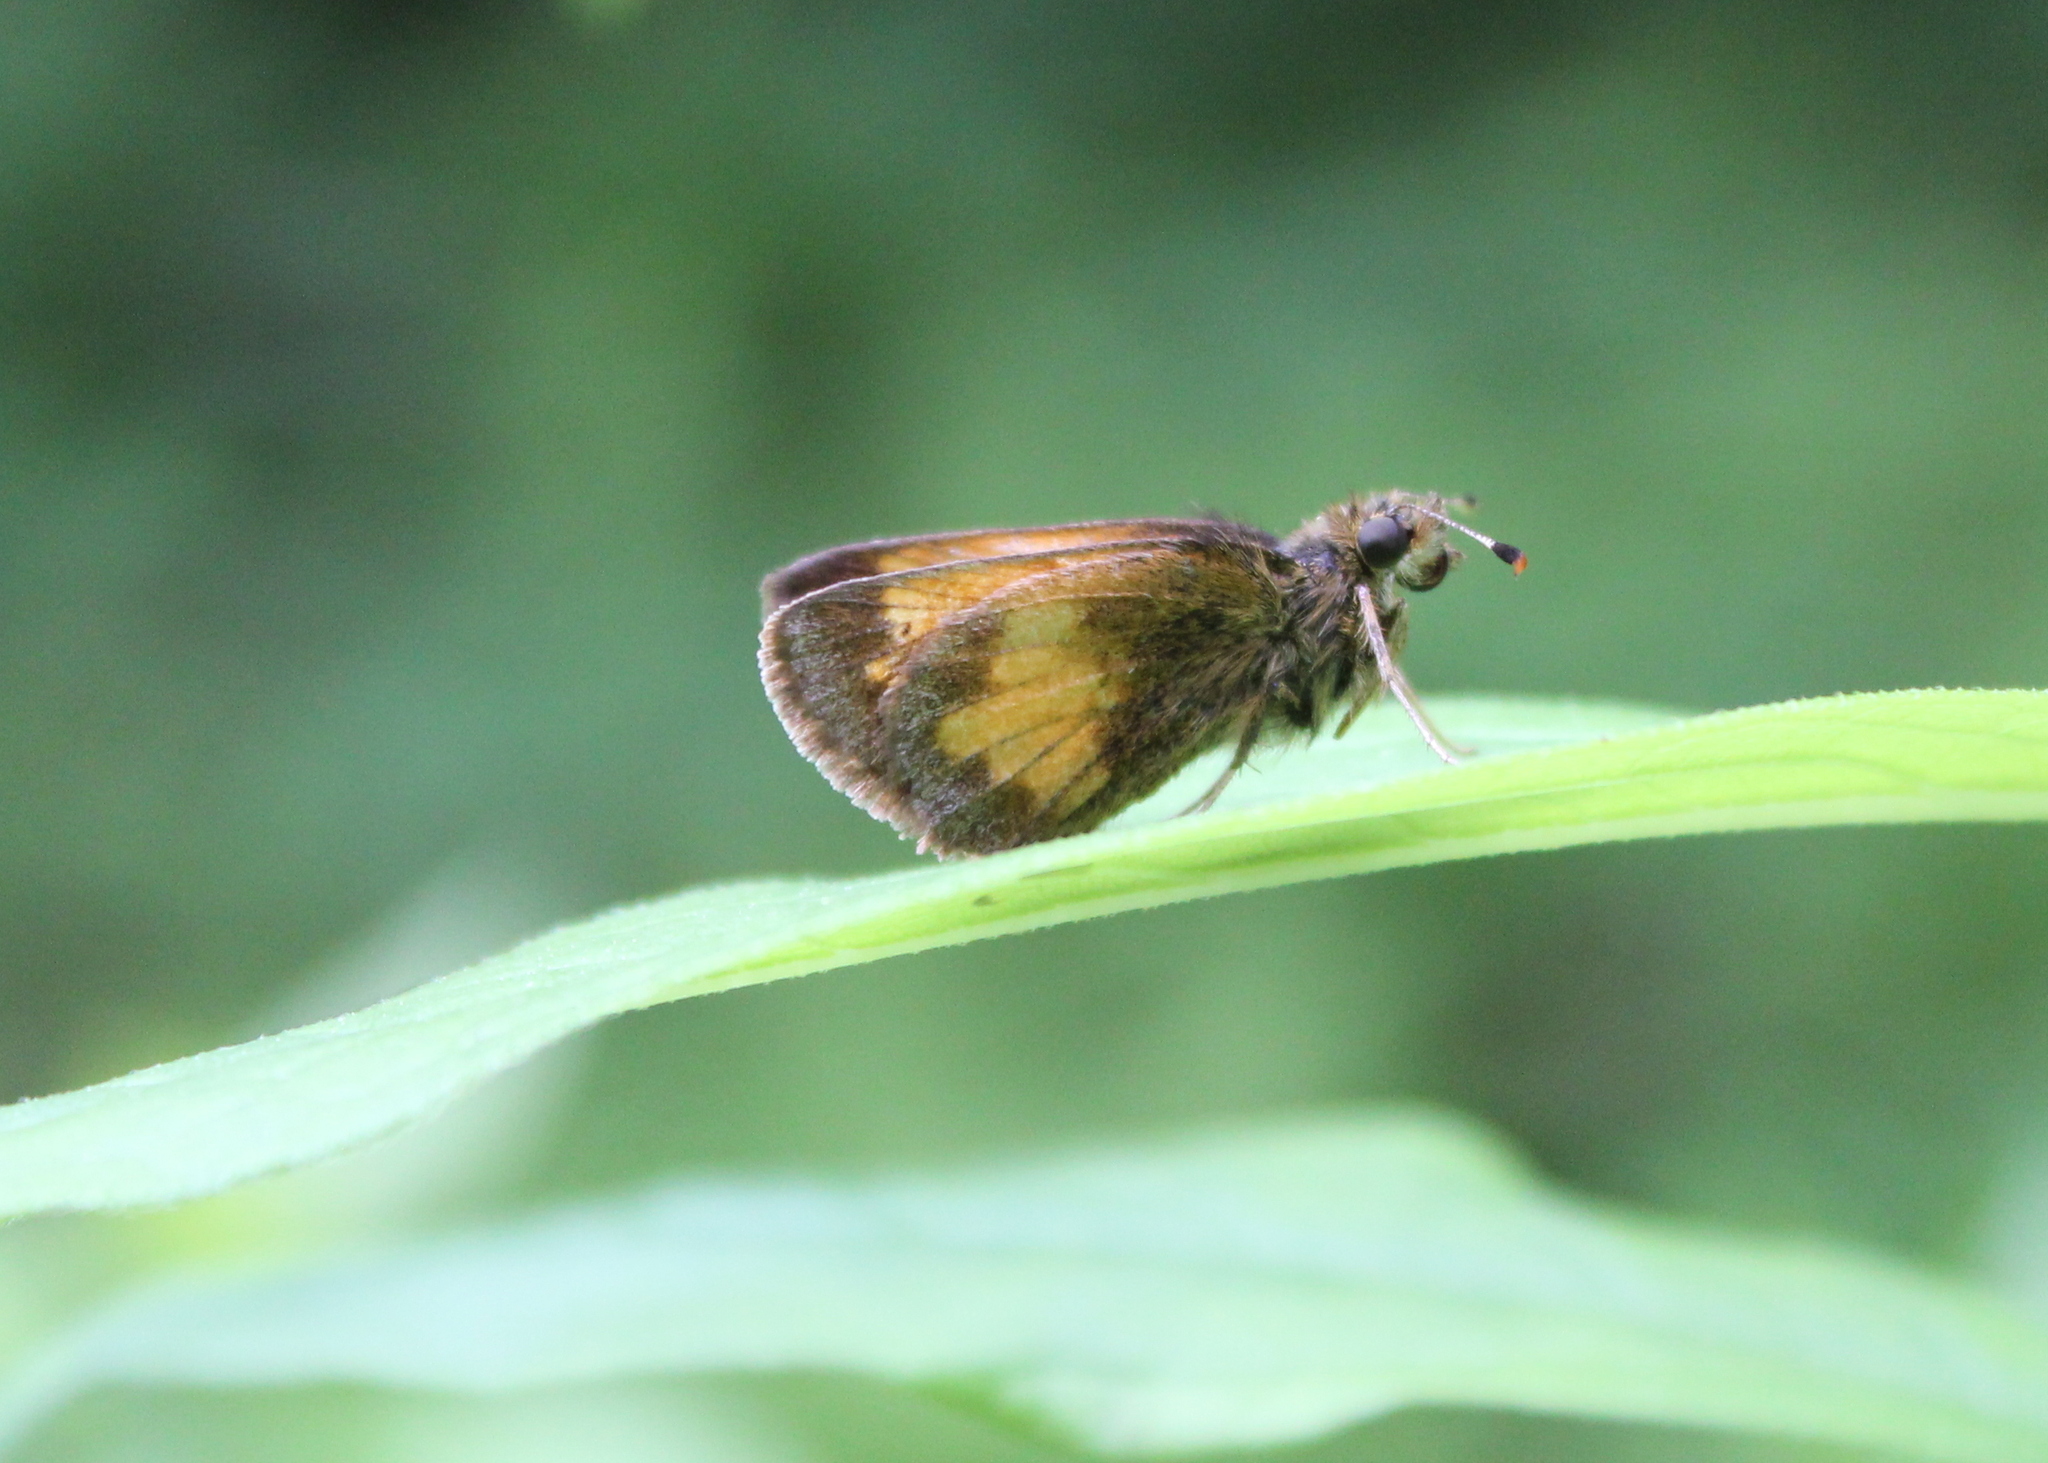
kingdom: Animalia
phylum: Arthropoda
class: Insecta
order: Lepidoptera
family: Hesperiidae
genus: Lon
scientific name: Lon hobomok
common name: Hobomok skipper
